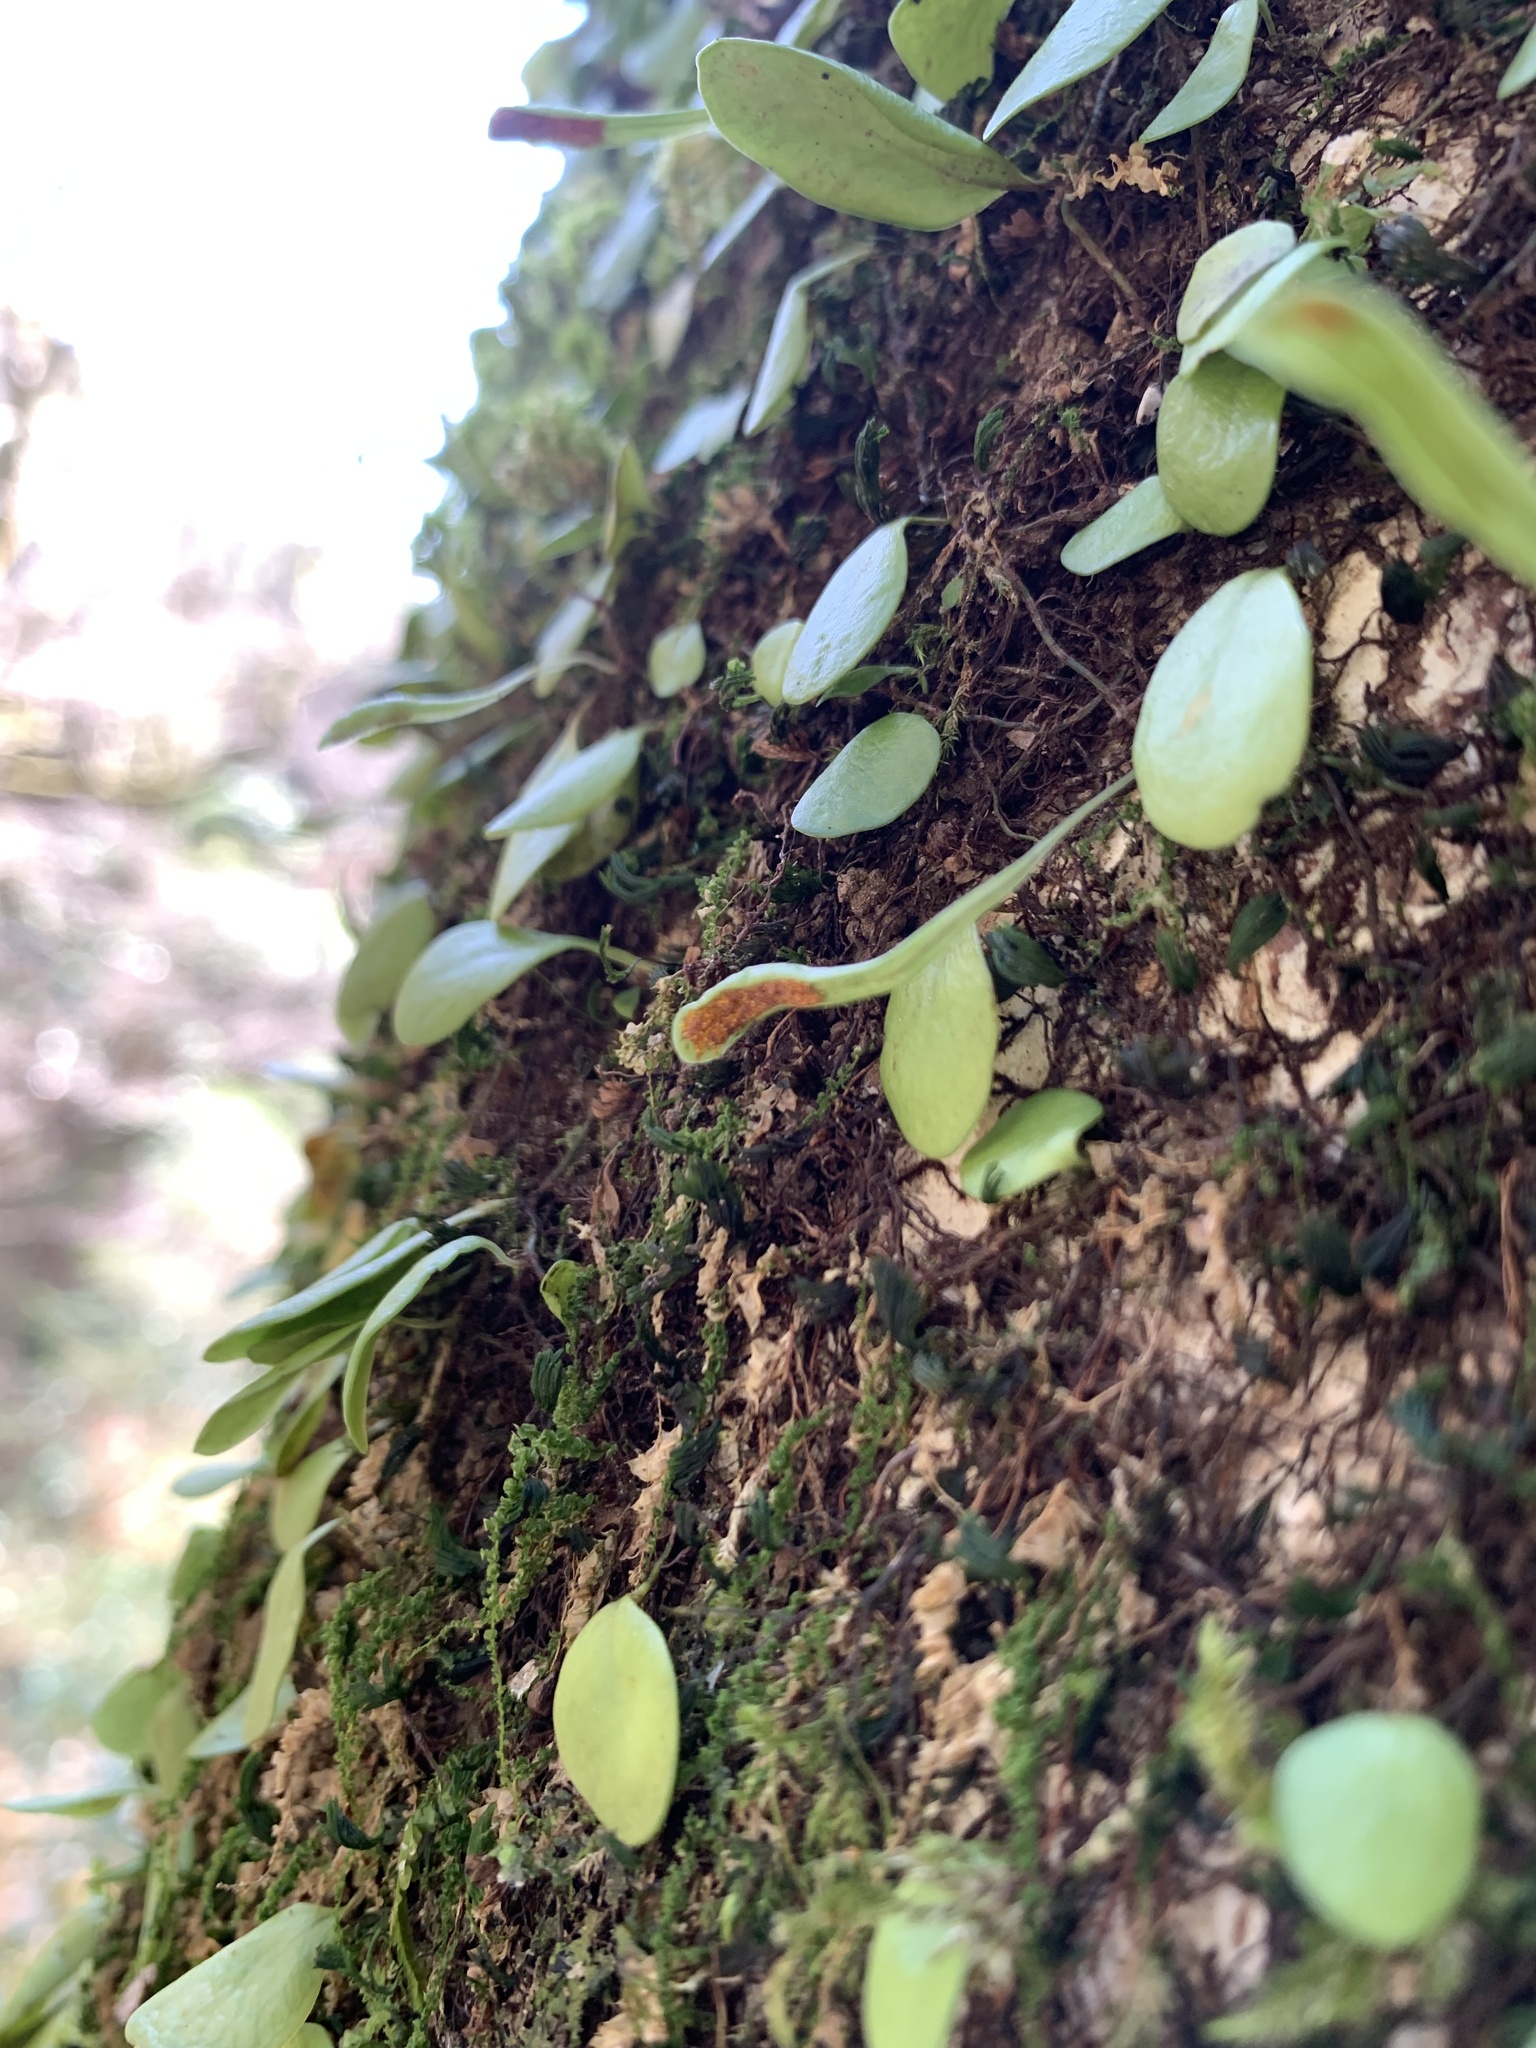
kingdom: Plantae
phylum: Tracheophyta
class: Polypodiopsida
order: Polypodiales
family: Polypodiaceae
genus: Lepisorus
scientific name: Lepisorus microphyllus
